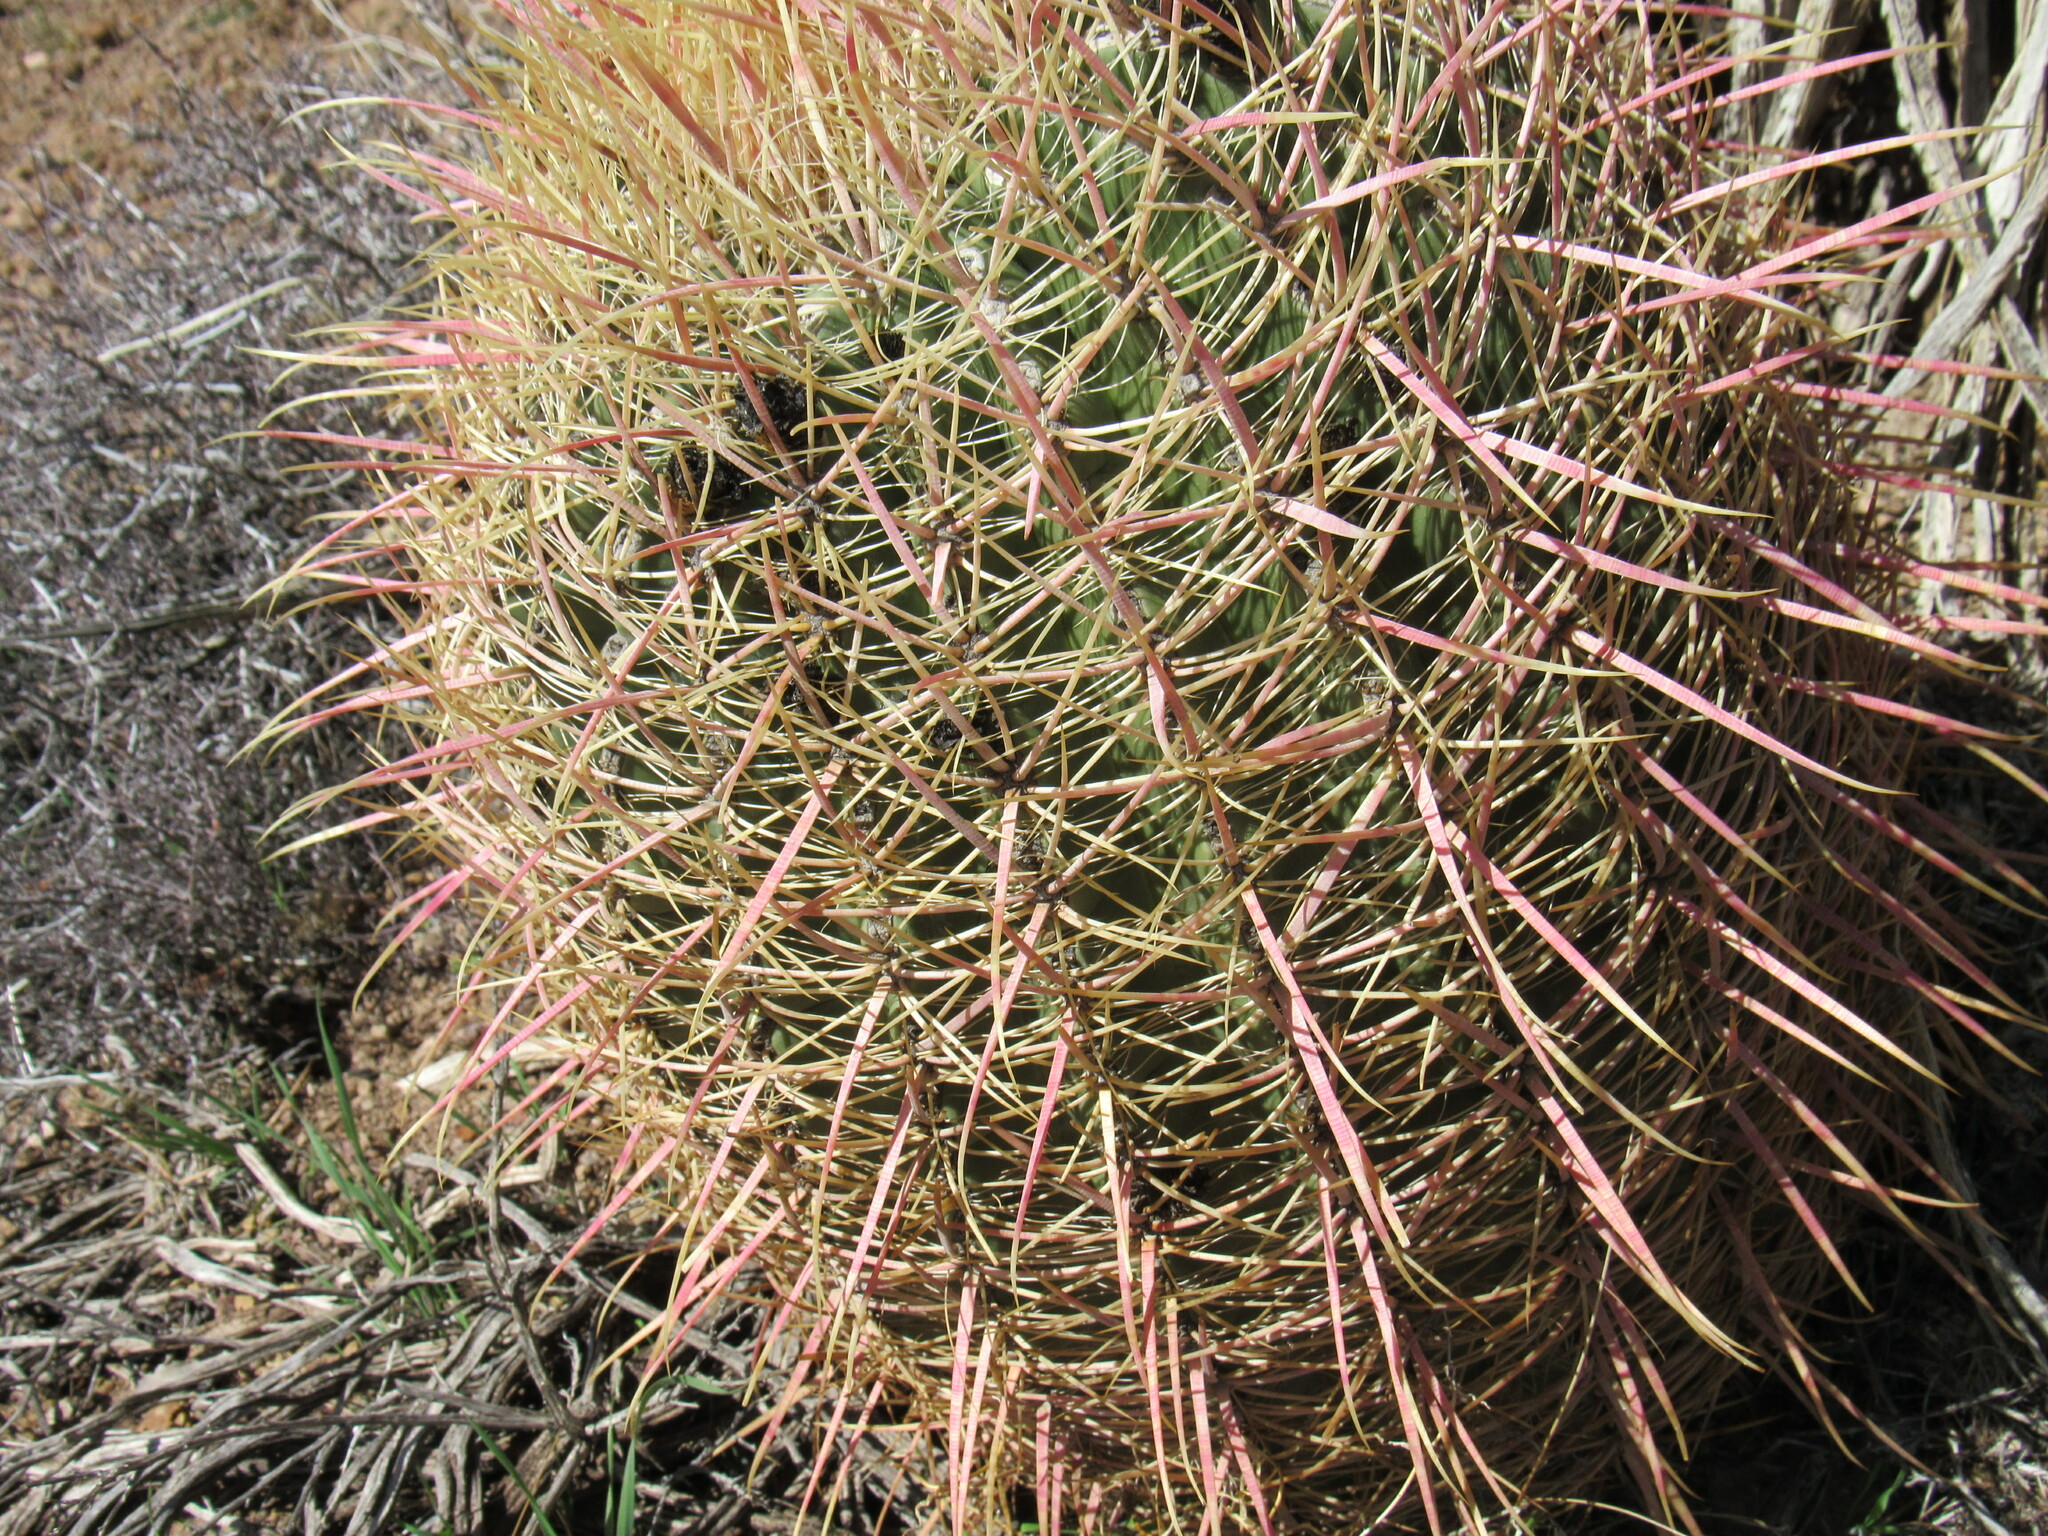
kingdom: Plantae
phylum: Tracheophyta
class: Magnoliopsida
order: Caryophyllales
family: Cactaceae
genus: Ferocactus
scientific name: Ferocactus cylindraceus
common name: California barrel cactus
